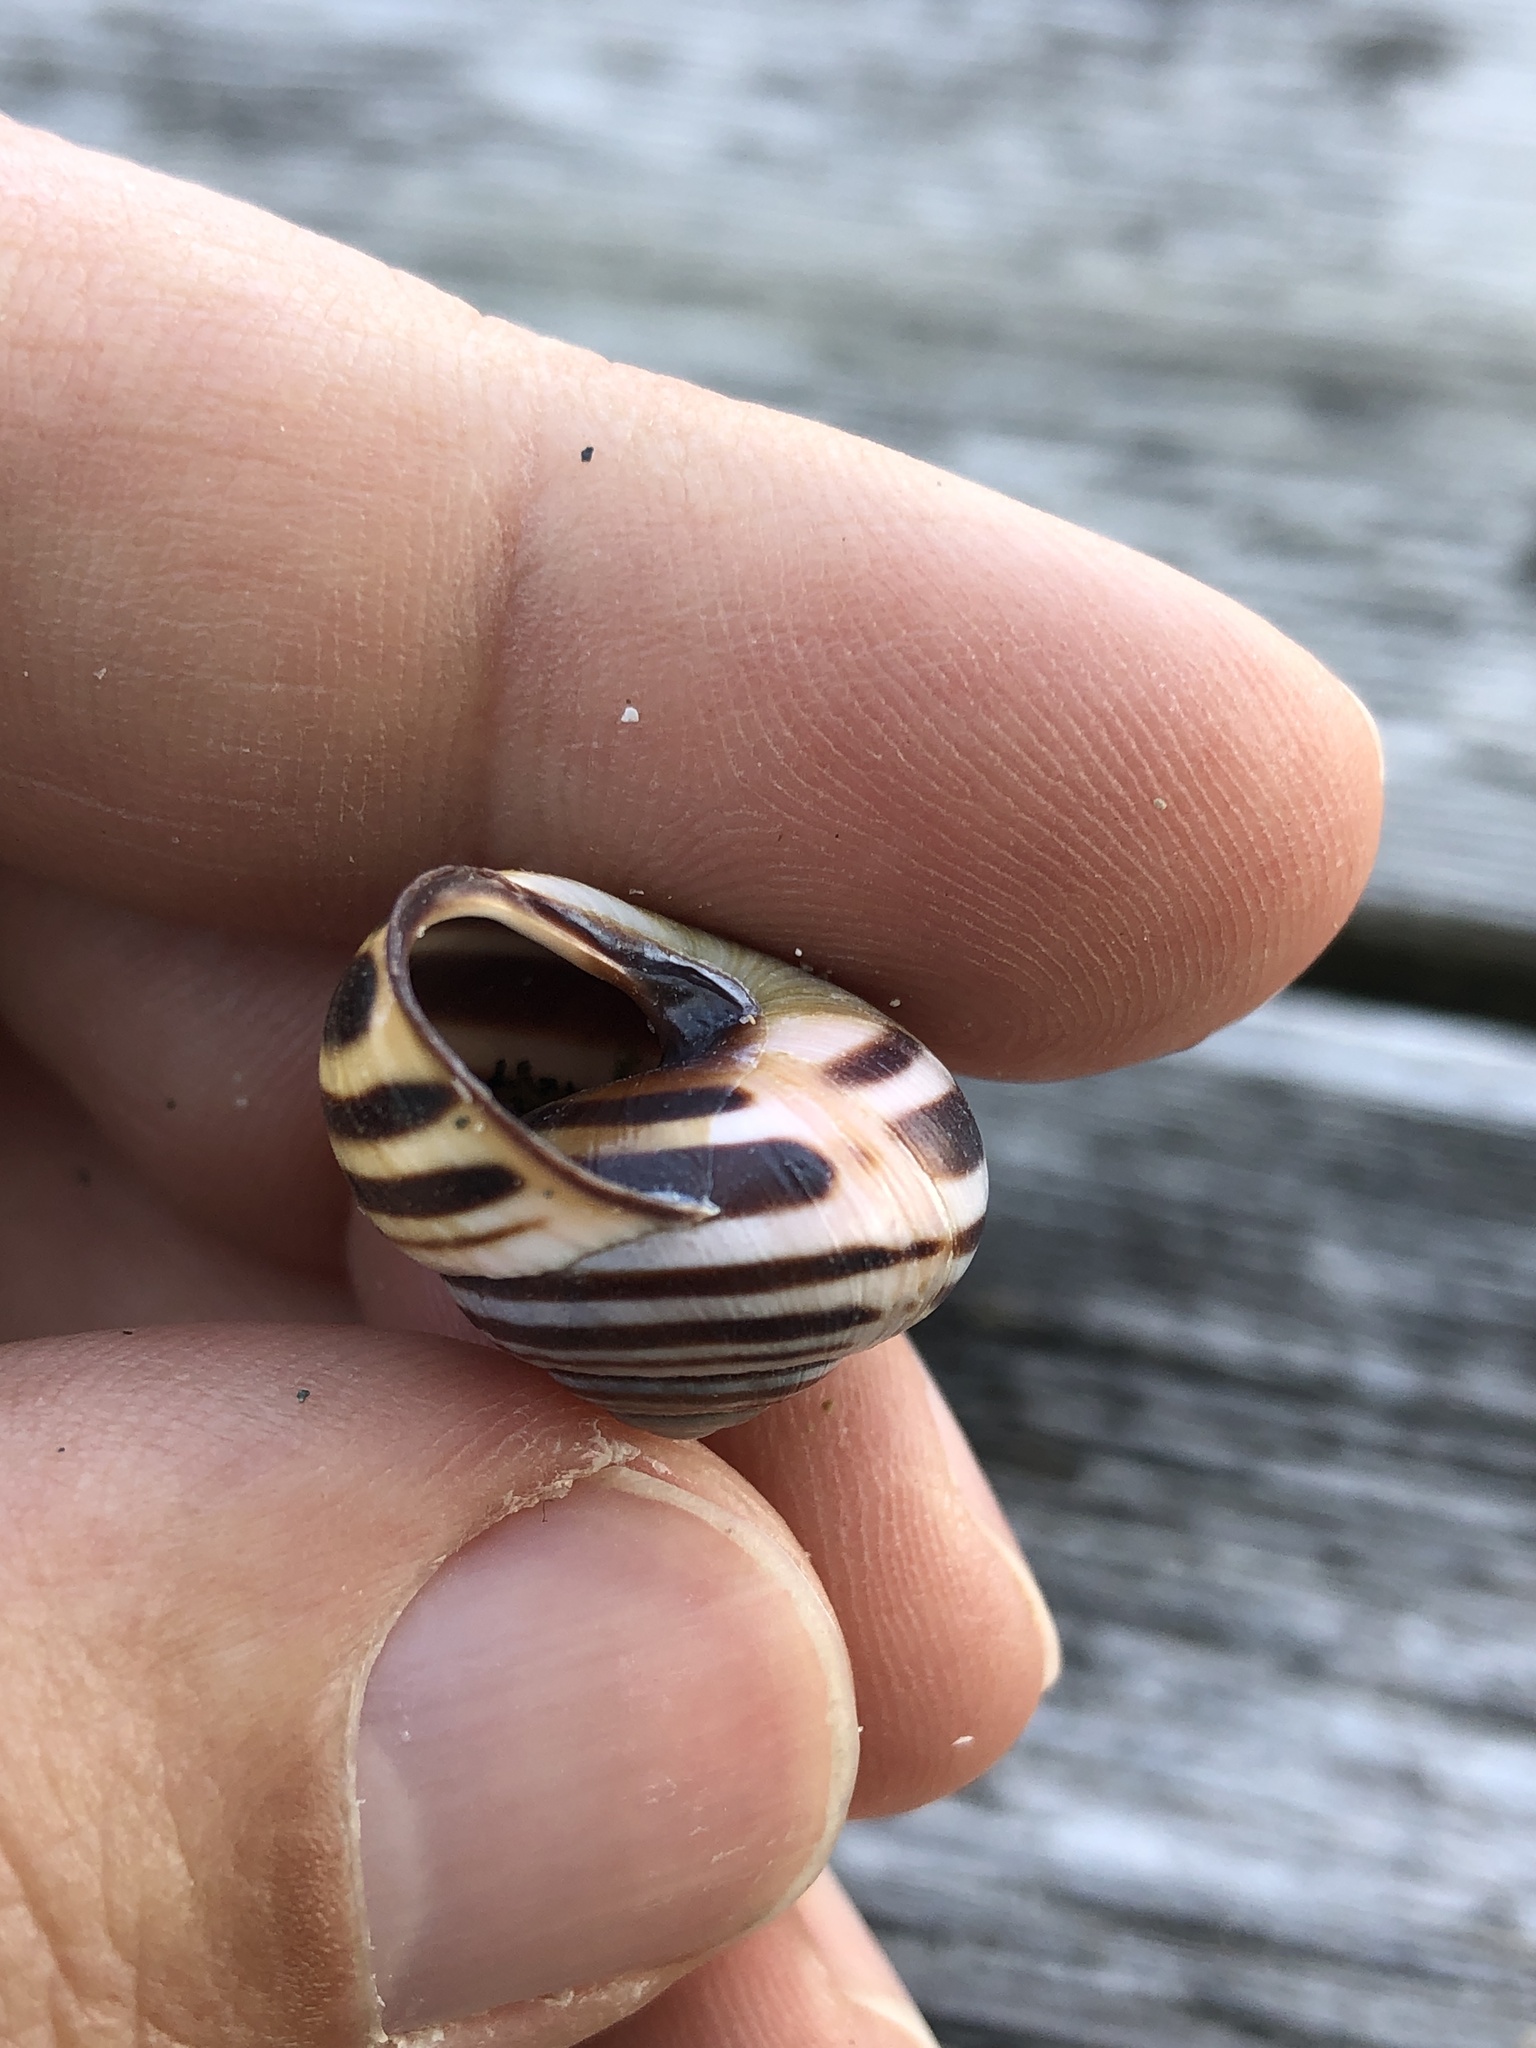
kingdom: Animalia
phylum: Mollusca
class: Gastropoda
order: Stylommatophora
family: Helicidae
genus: Cepaea
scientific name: Cepaea nemoralis
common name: Grovesnail
